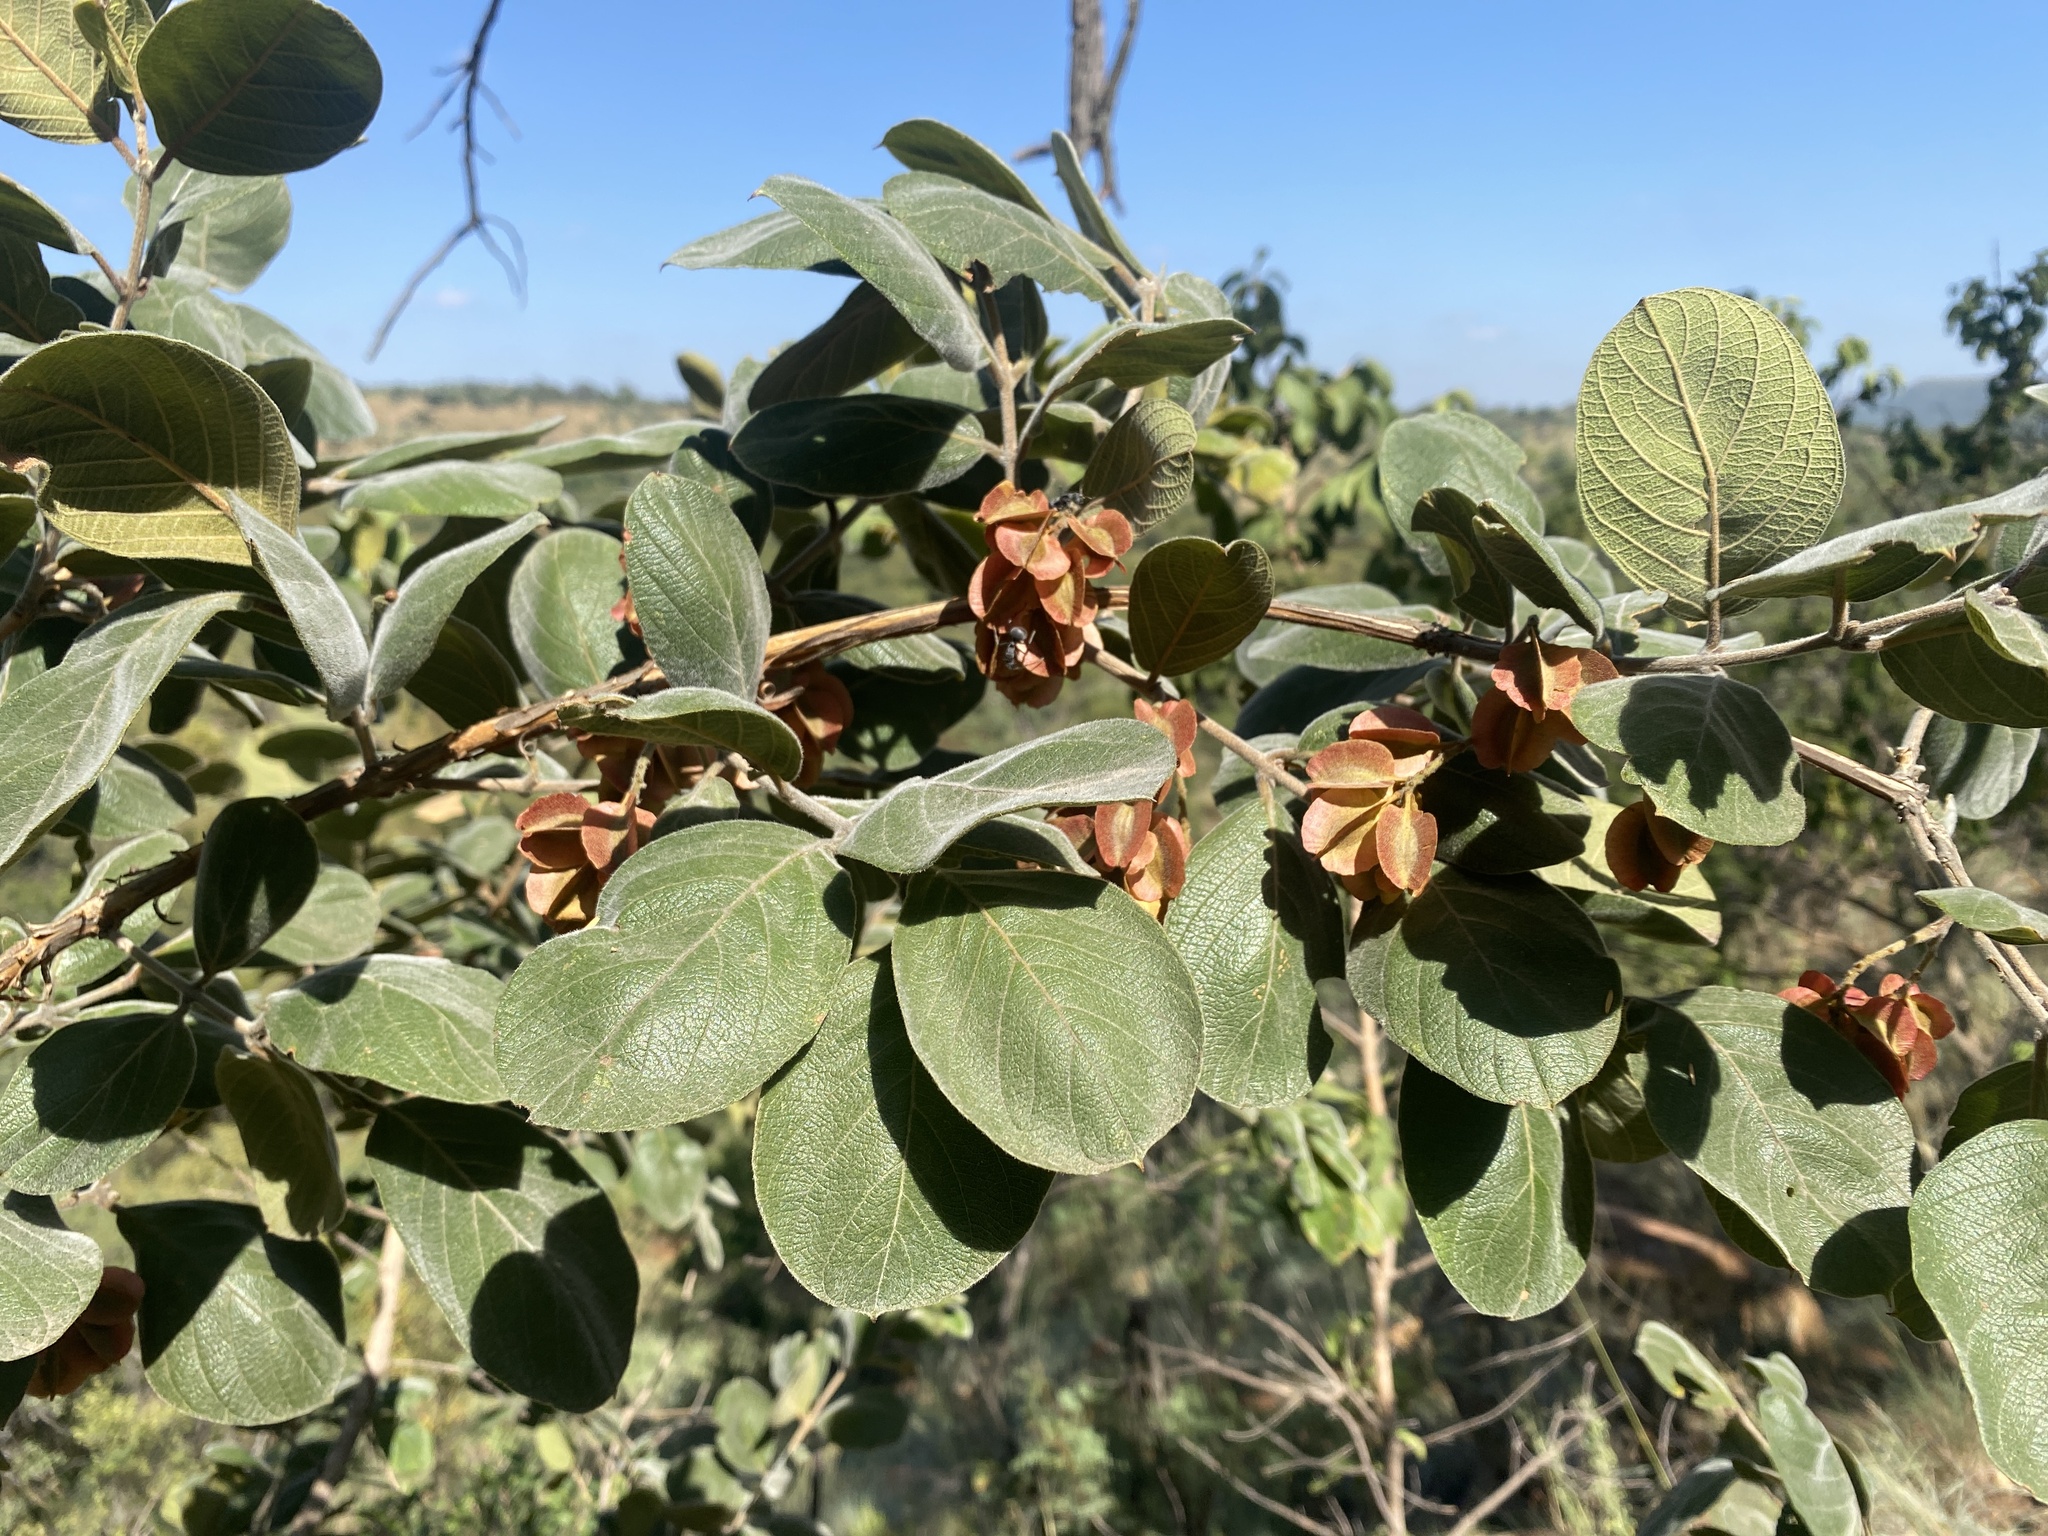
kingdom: Plantae
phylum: Tracheophyta
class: Magnoliopsida
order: Myrtales
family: Combretaceae
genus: Combretum
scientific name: Combretum molle
